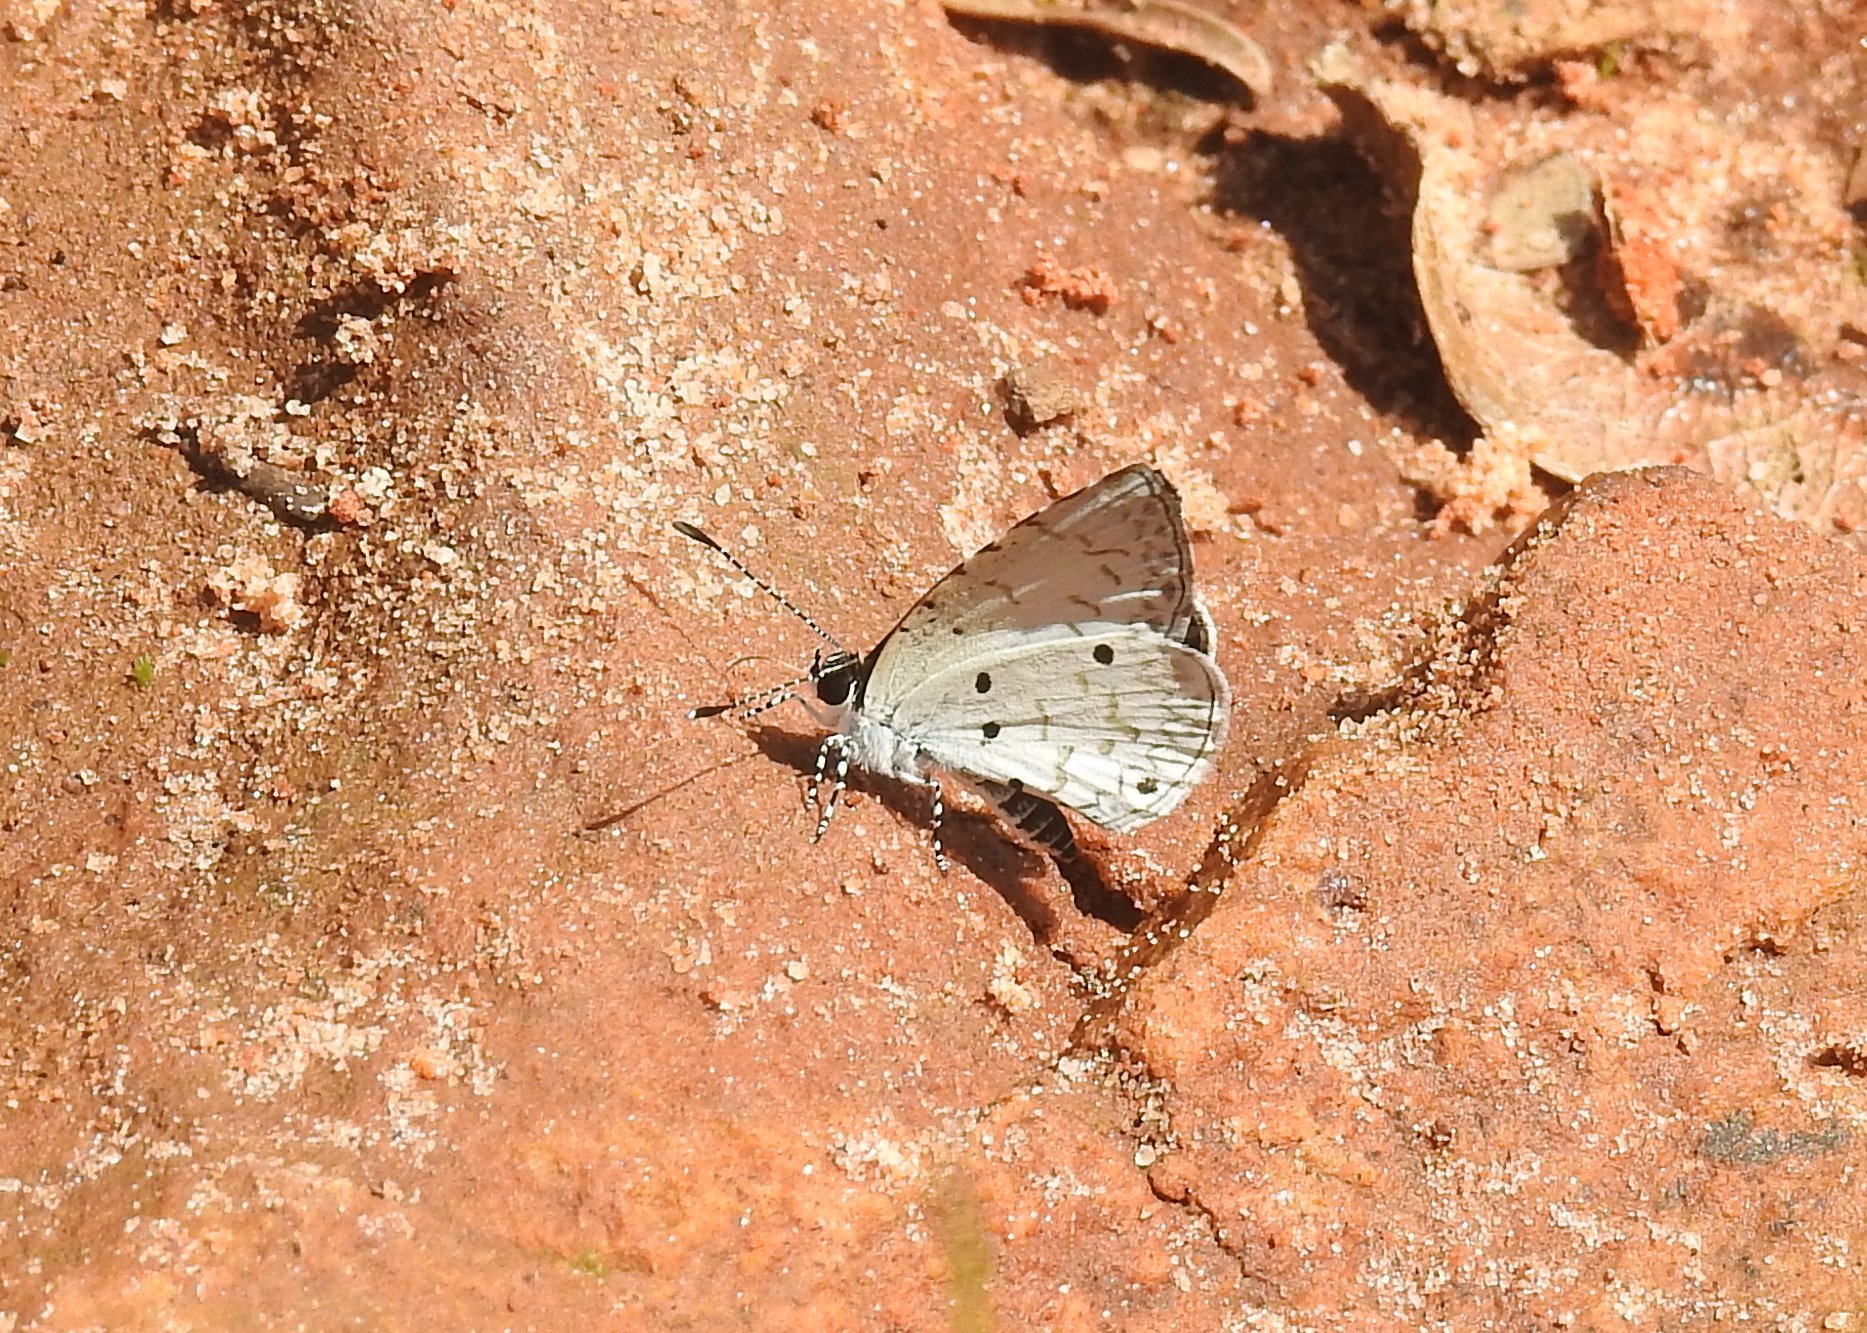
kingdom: Animalia
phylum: Arthropoda
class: Insecta
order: Lepidoptera
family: Lycaenidae
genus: Megisba
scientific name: Megisba malaya
